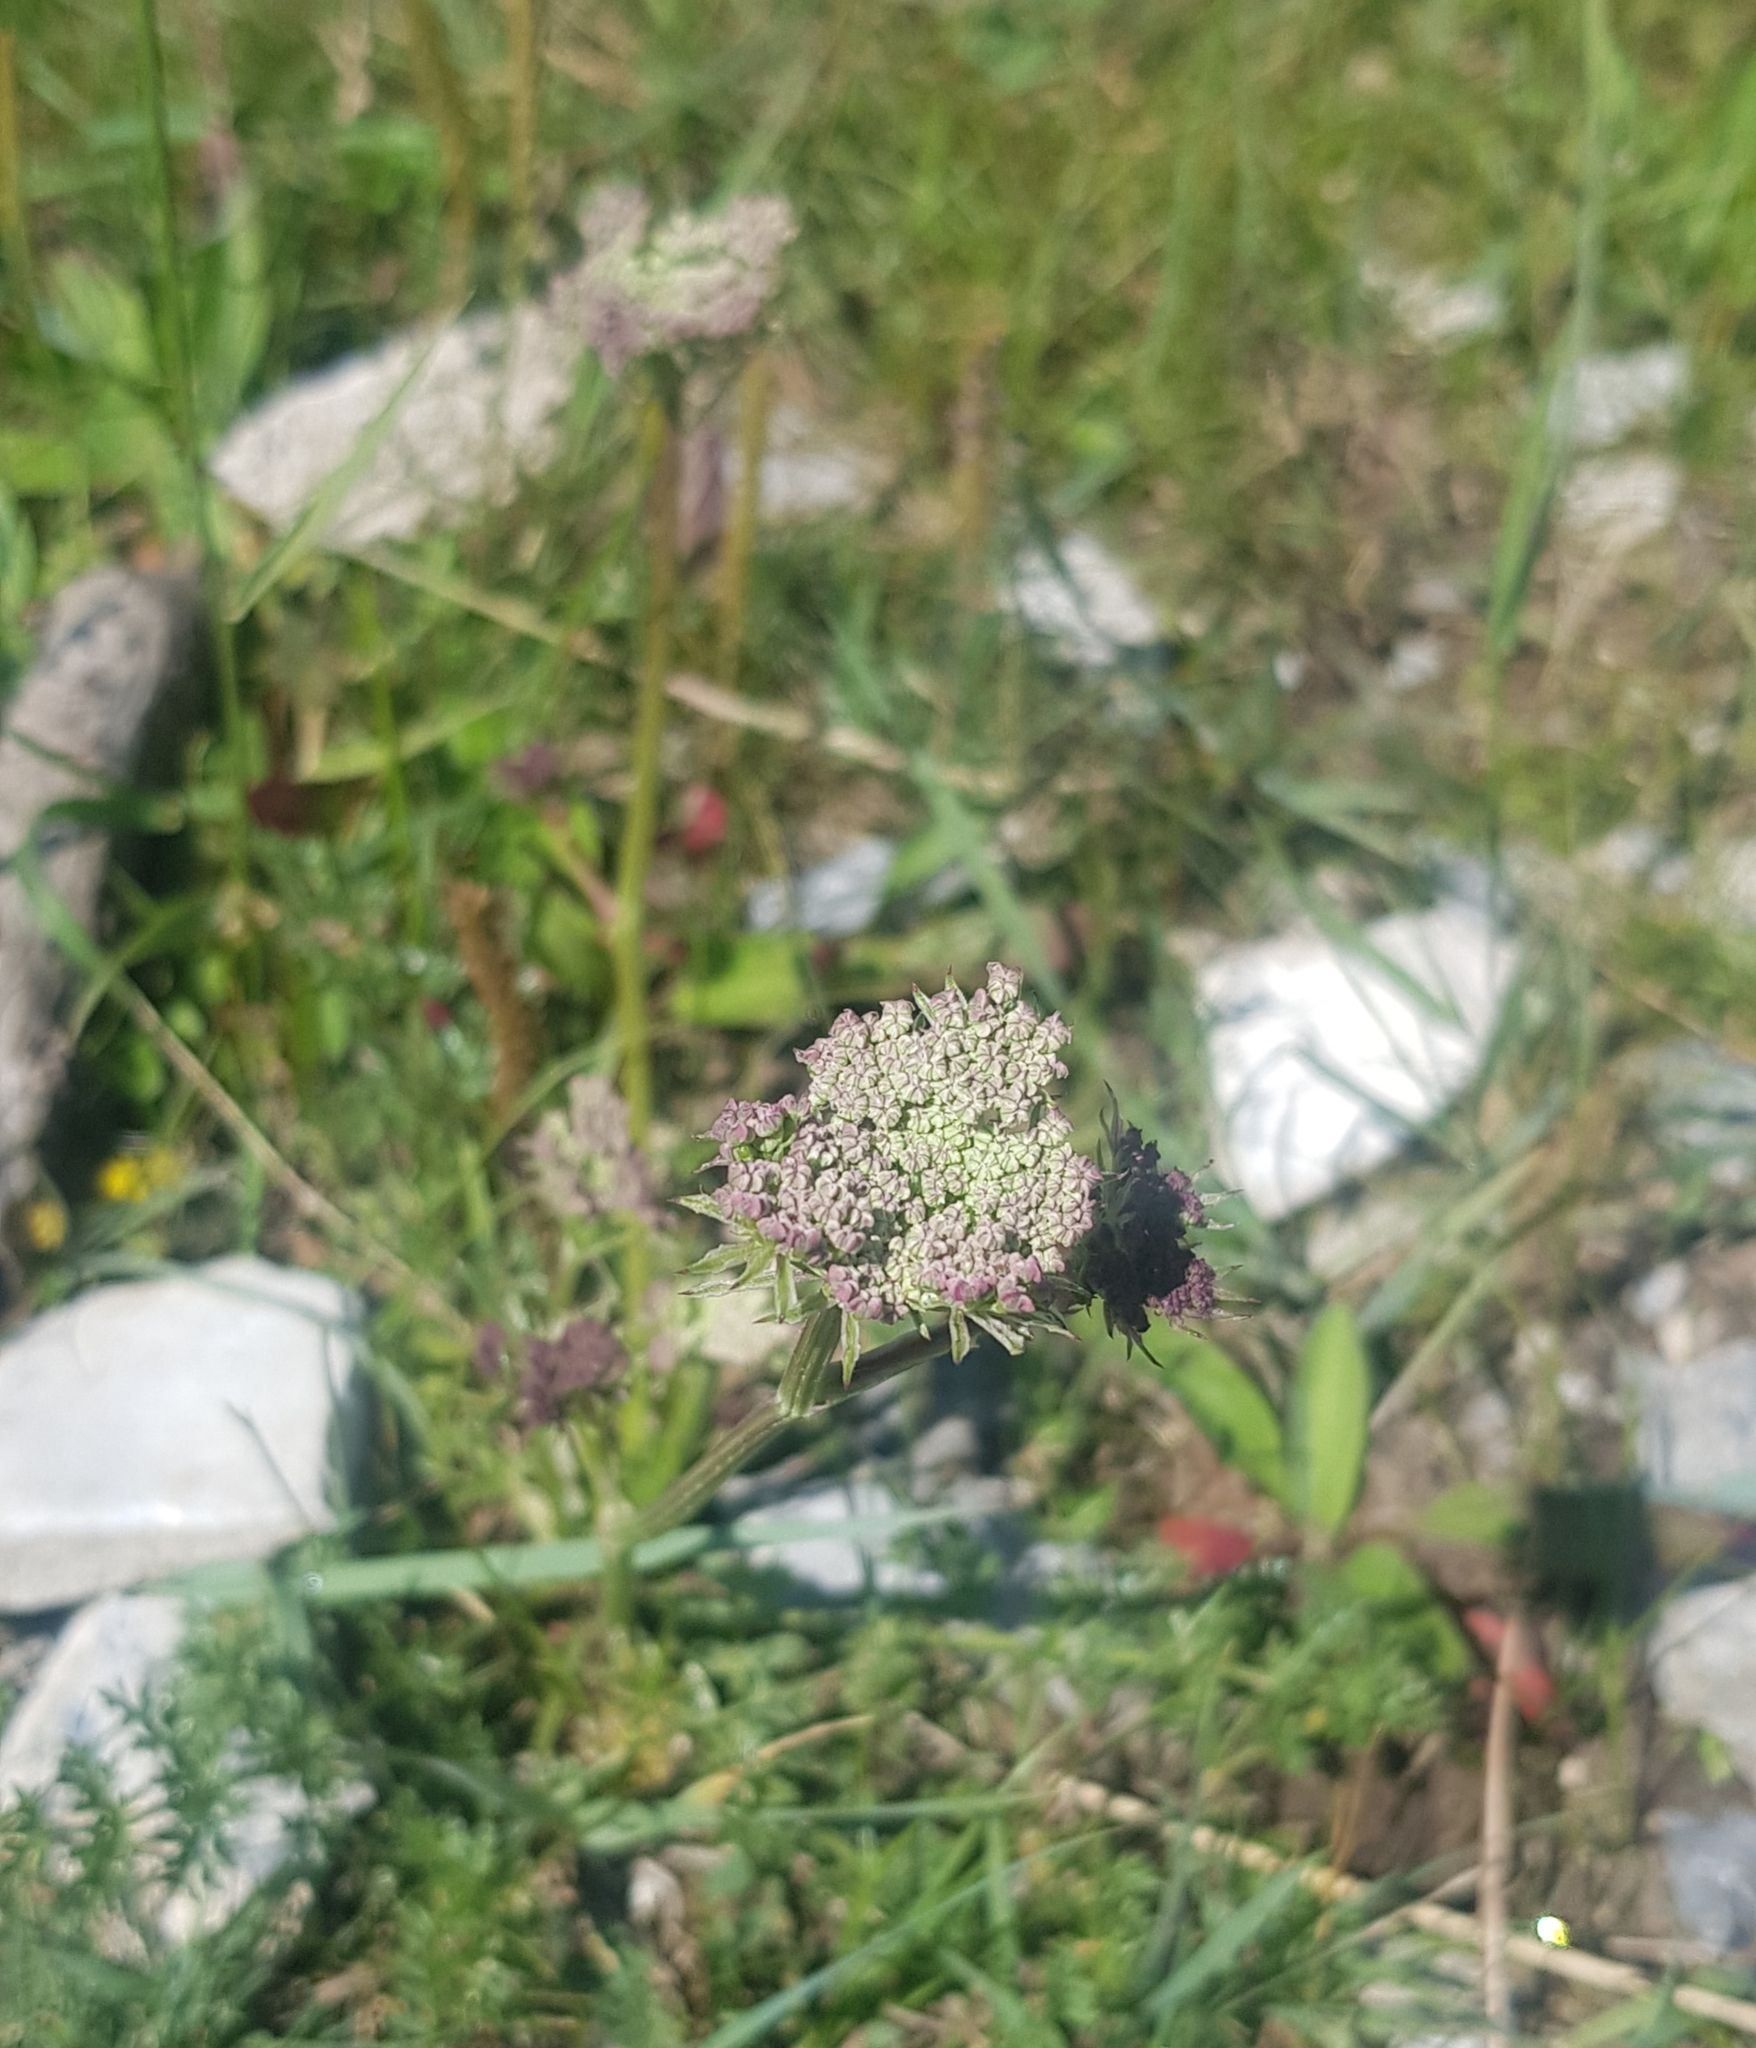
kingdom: Plantae
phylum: Tracheophyta
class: Magnoliopsida
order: Apiales
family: Apiaceae
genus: Sajanella
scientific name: Sajanella monstrosa
